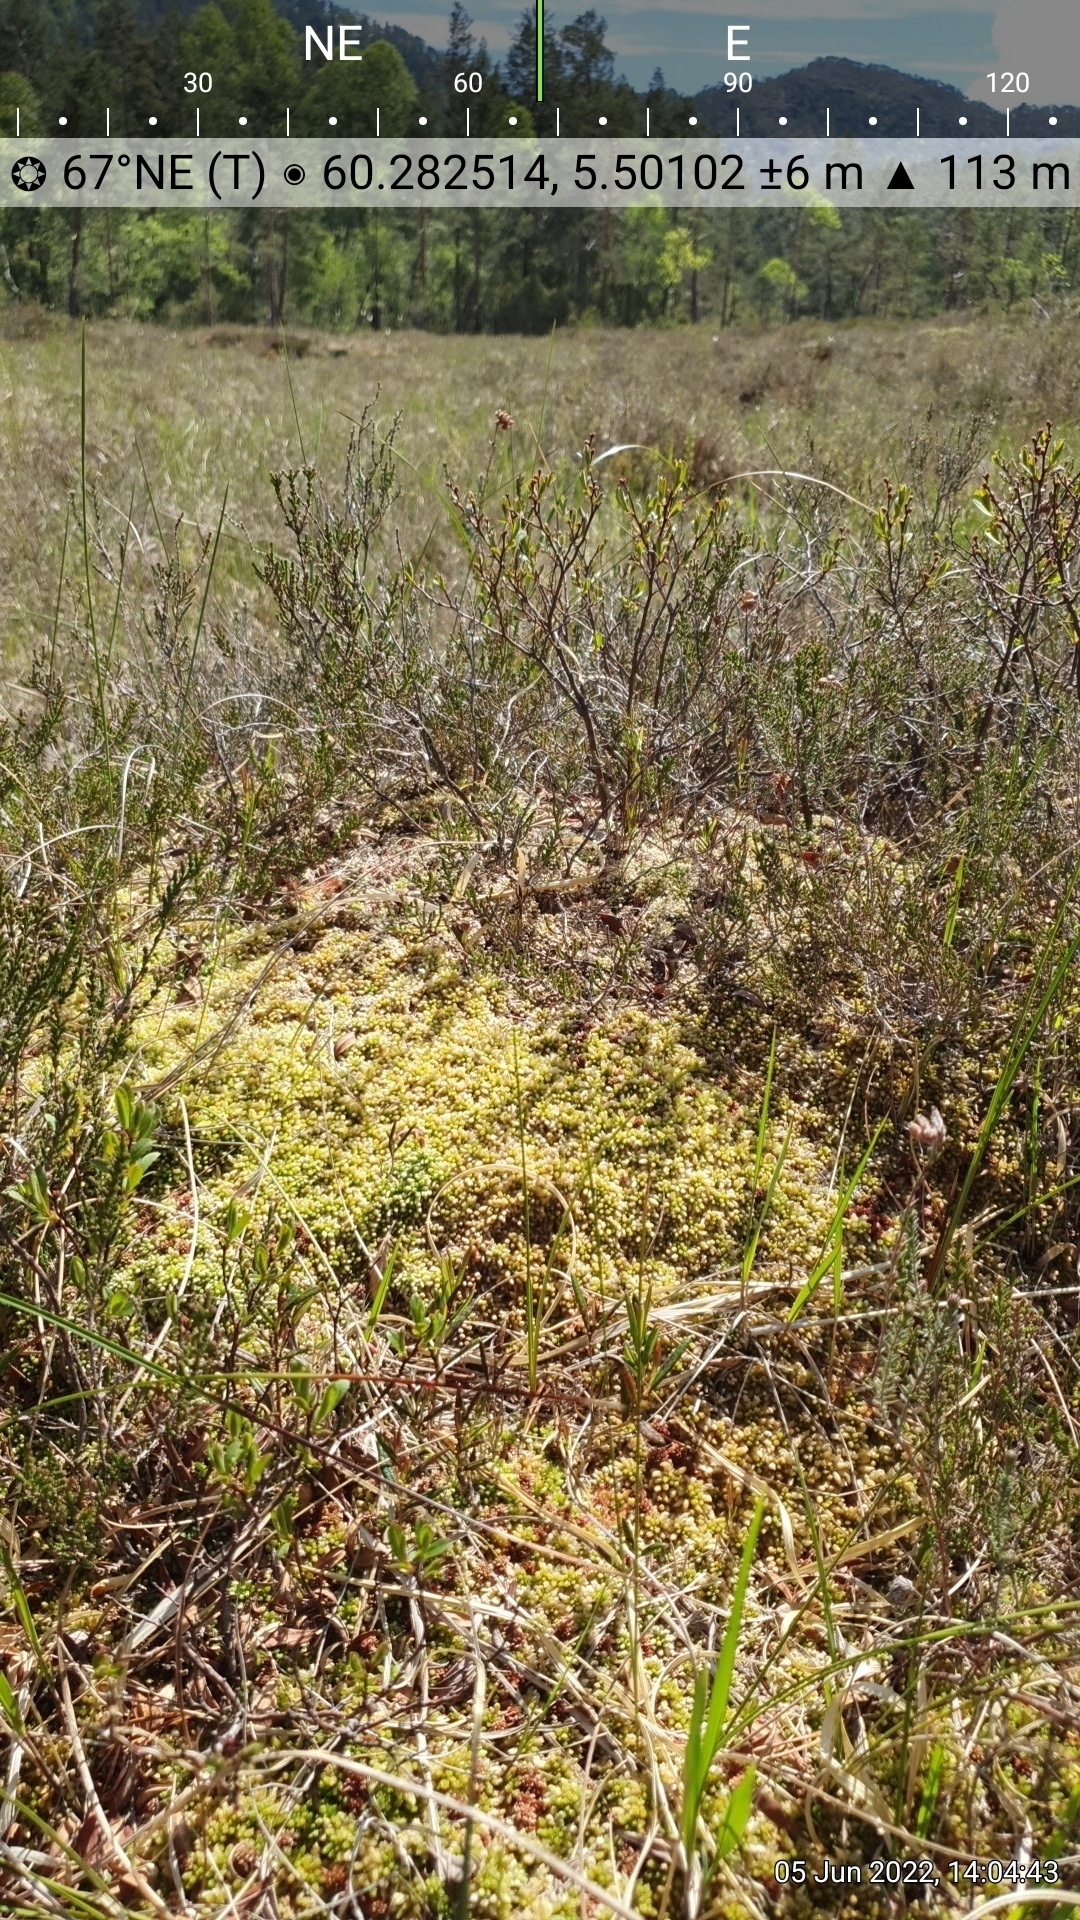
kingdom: Plantae
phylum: Tracheophyta
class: Magnoliopsida
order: Ericales
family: Ericaceae
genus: Andromeda
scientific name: Andromeda polifolia
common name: Bog-rosemary
